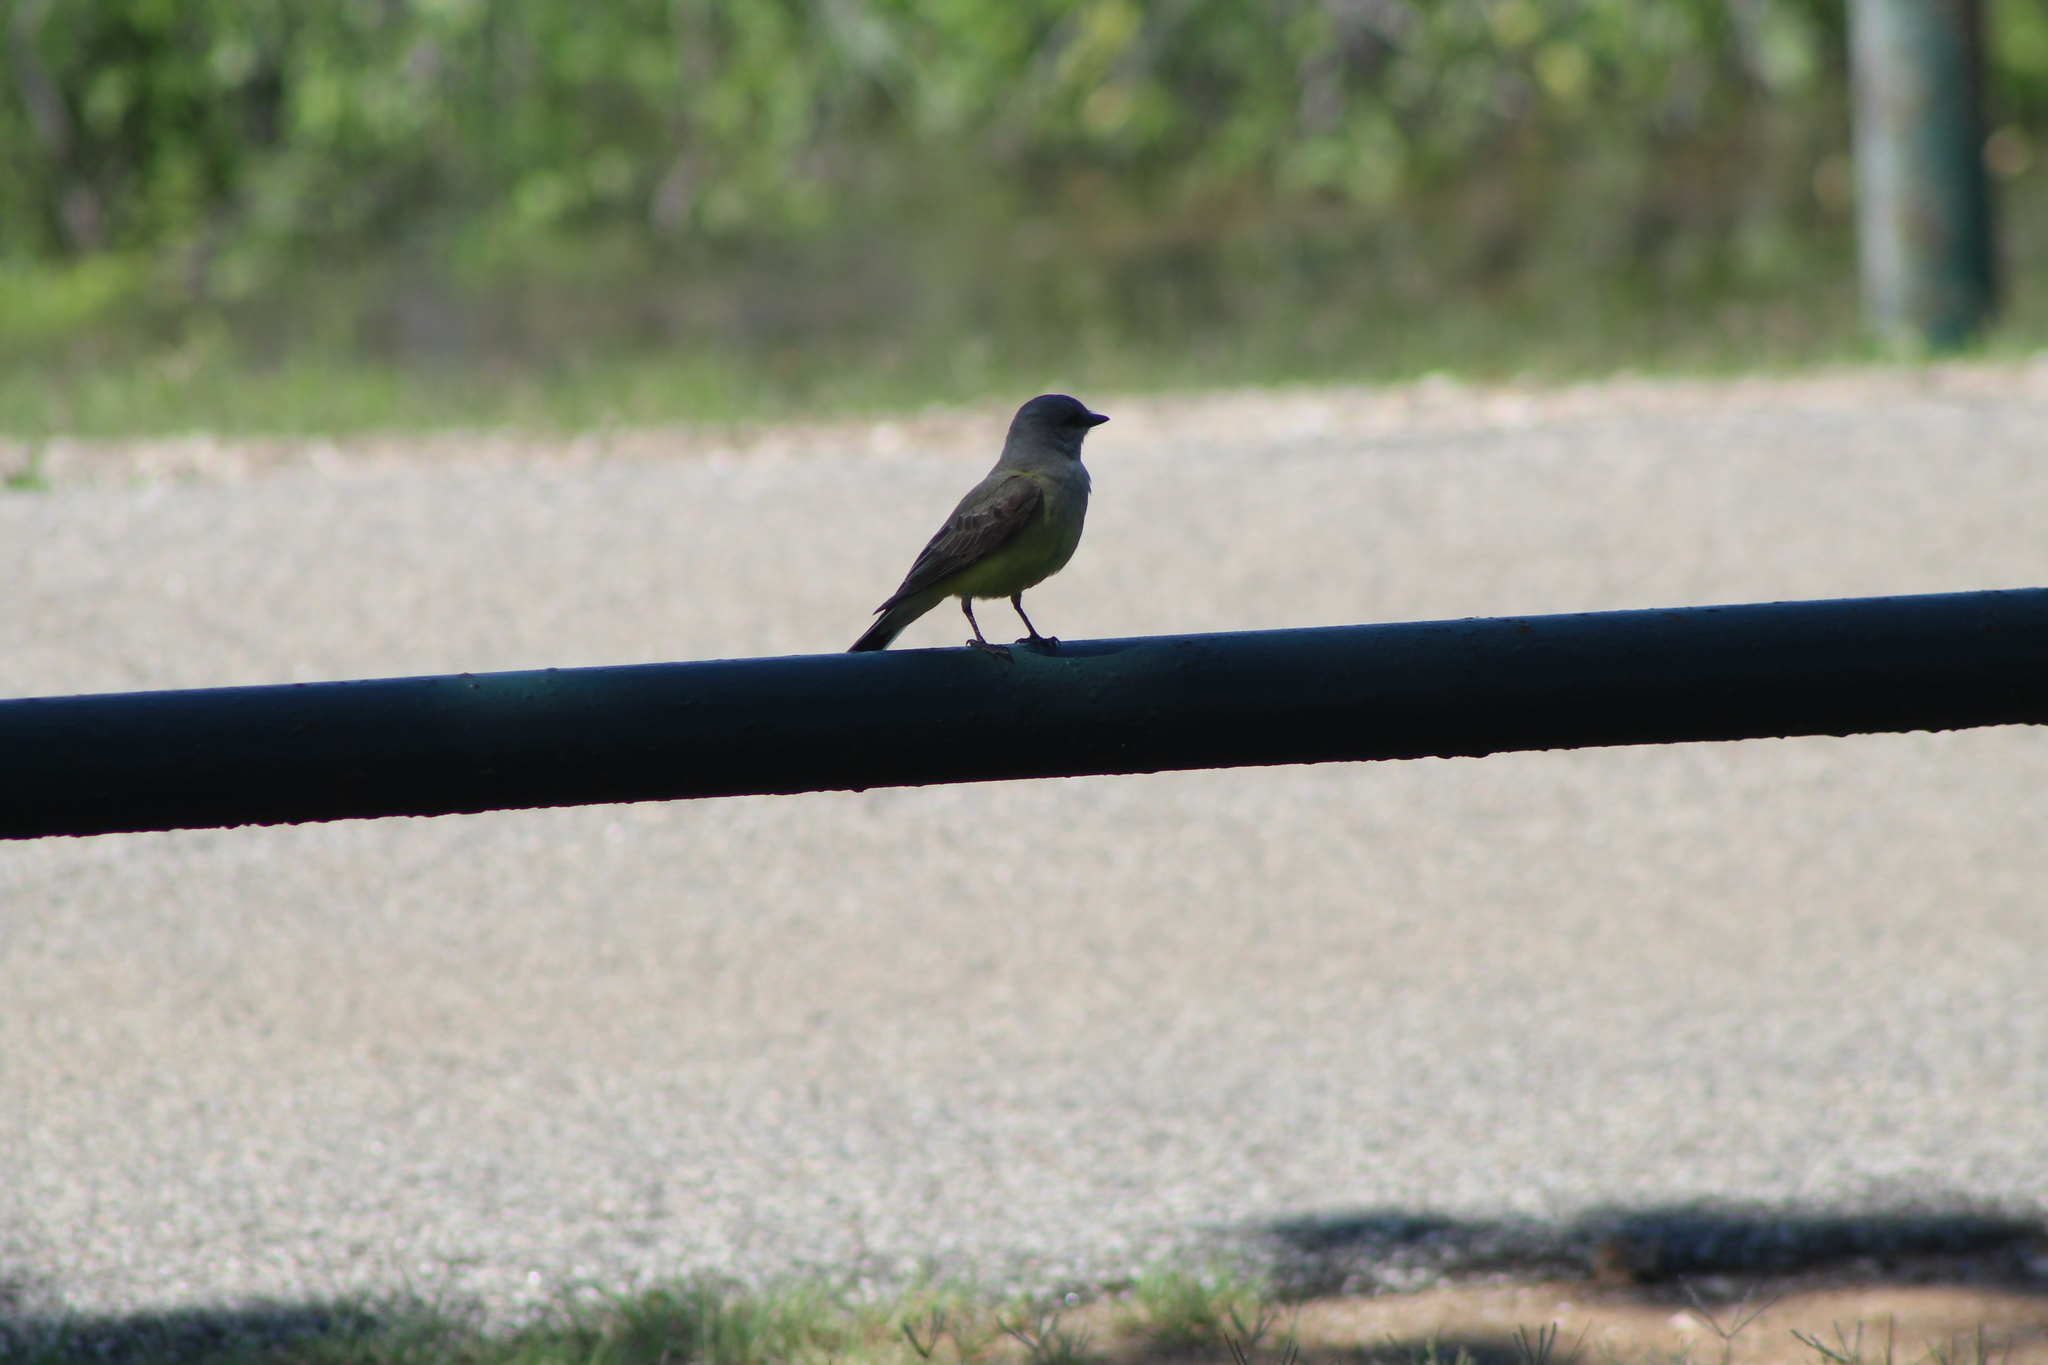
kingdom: Animalia
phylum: Chordata
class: Aves
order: Passeriformes
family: Tyrannidae
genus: Tyrannus
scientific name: Tyrannus verticalis
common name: Western kingbird
